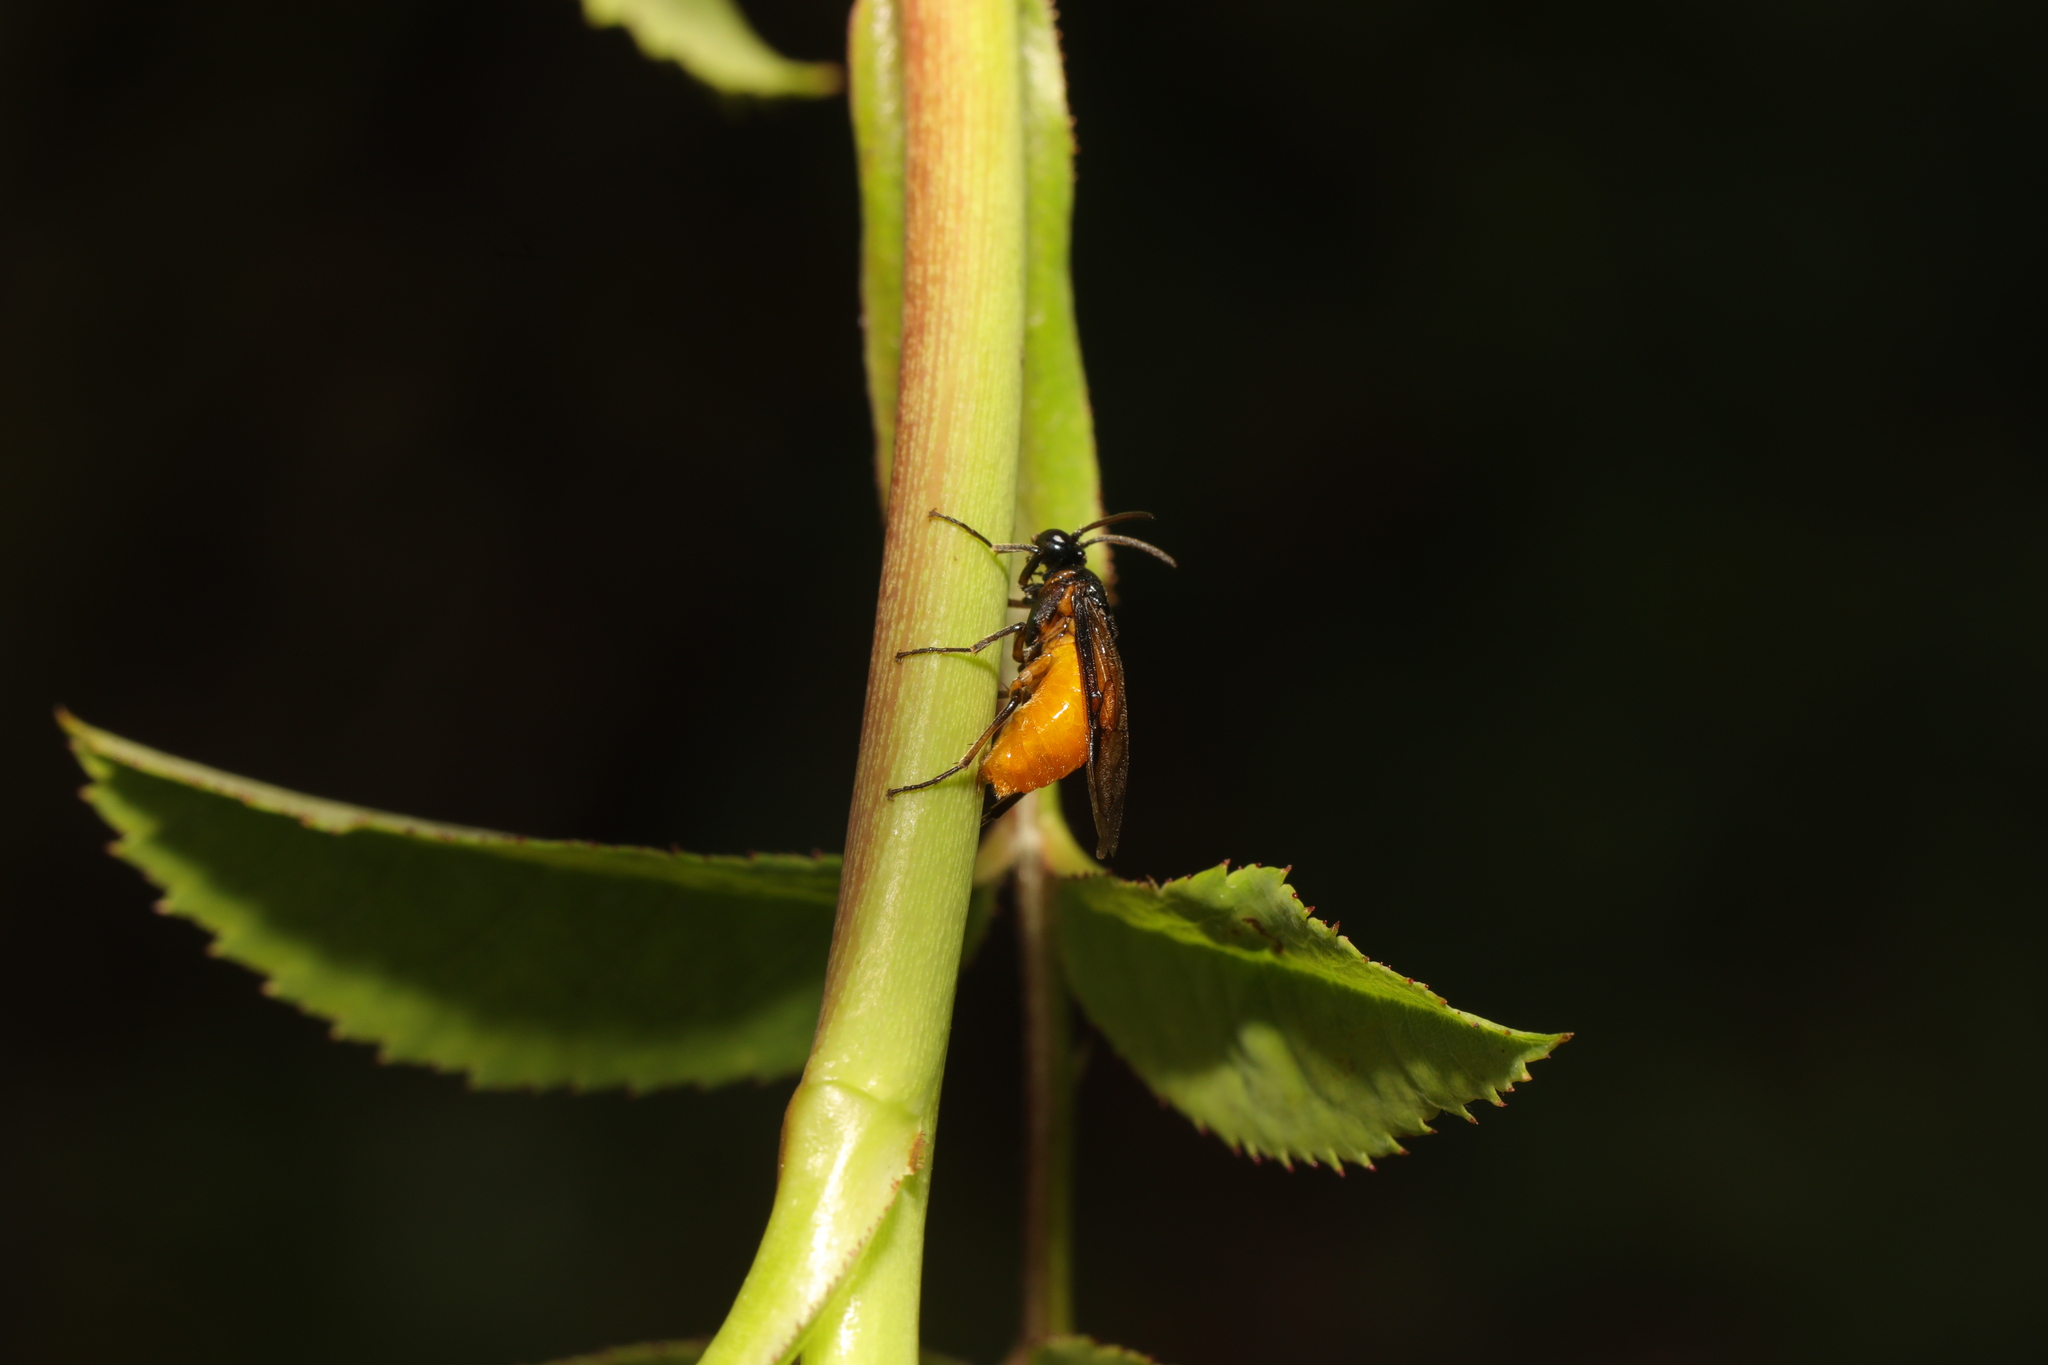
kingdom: Animalia
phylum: Arthropoda
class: Insecta
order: Hymenoptera
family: Argidae
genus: Arge
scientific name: Arge pagana
